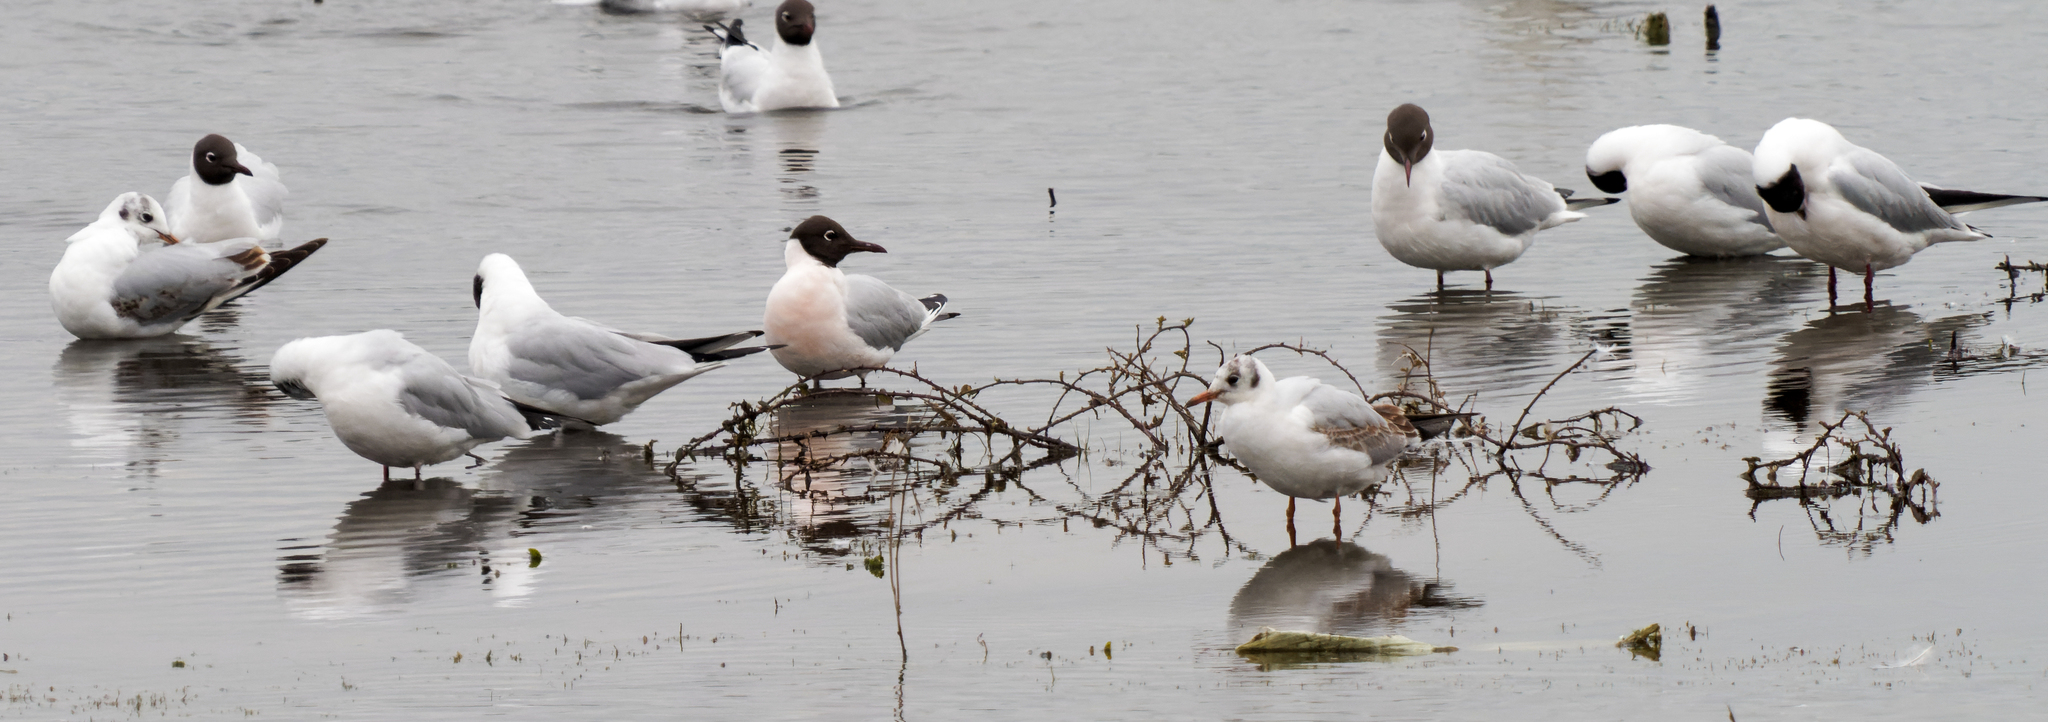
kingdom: Animalia
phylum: Chordata
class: Aves
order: Charadriiformes
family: Laridae
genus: Chroicocephalus
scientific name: Chroicocephalus ridibundus
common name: Black-headed gull
